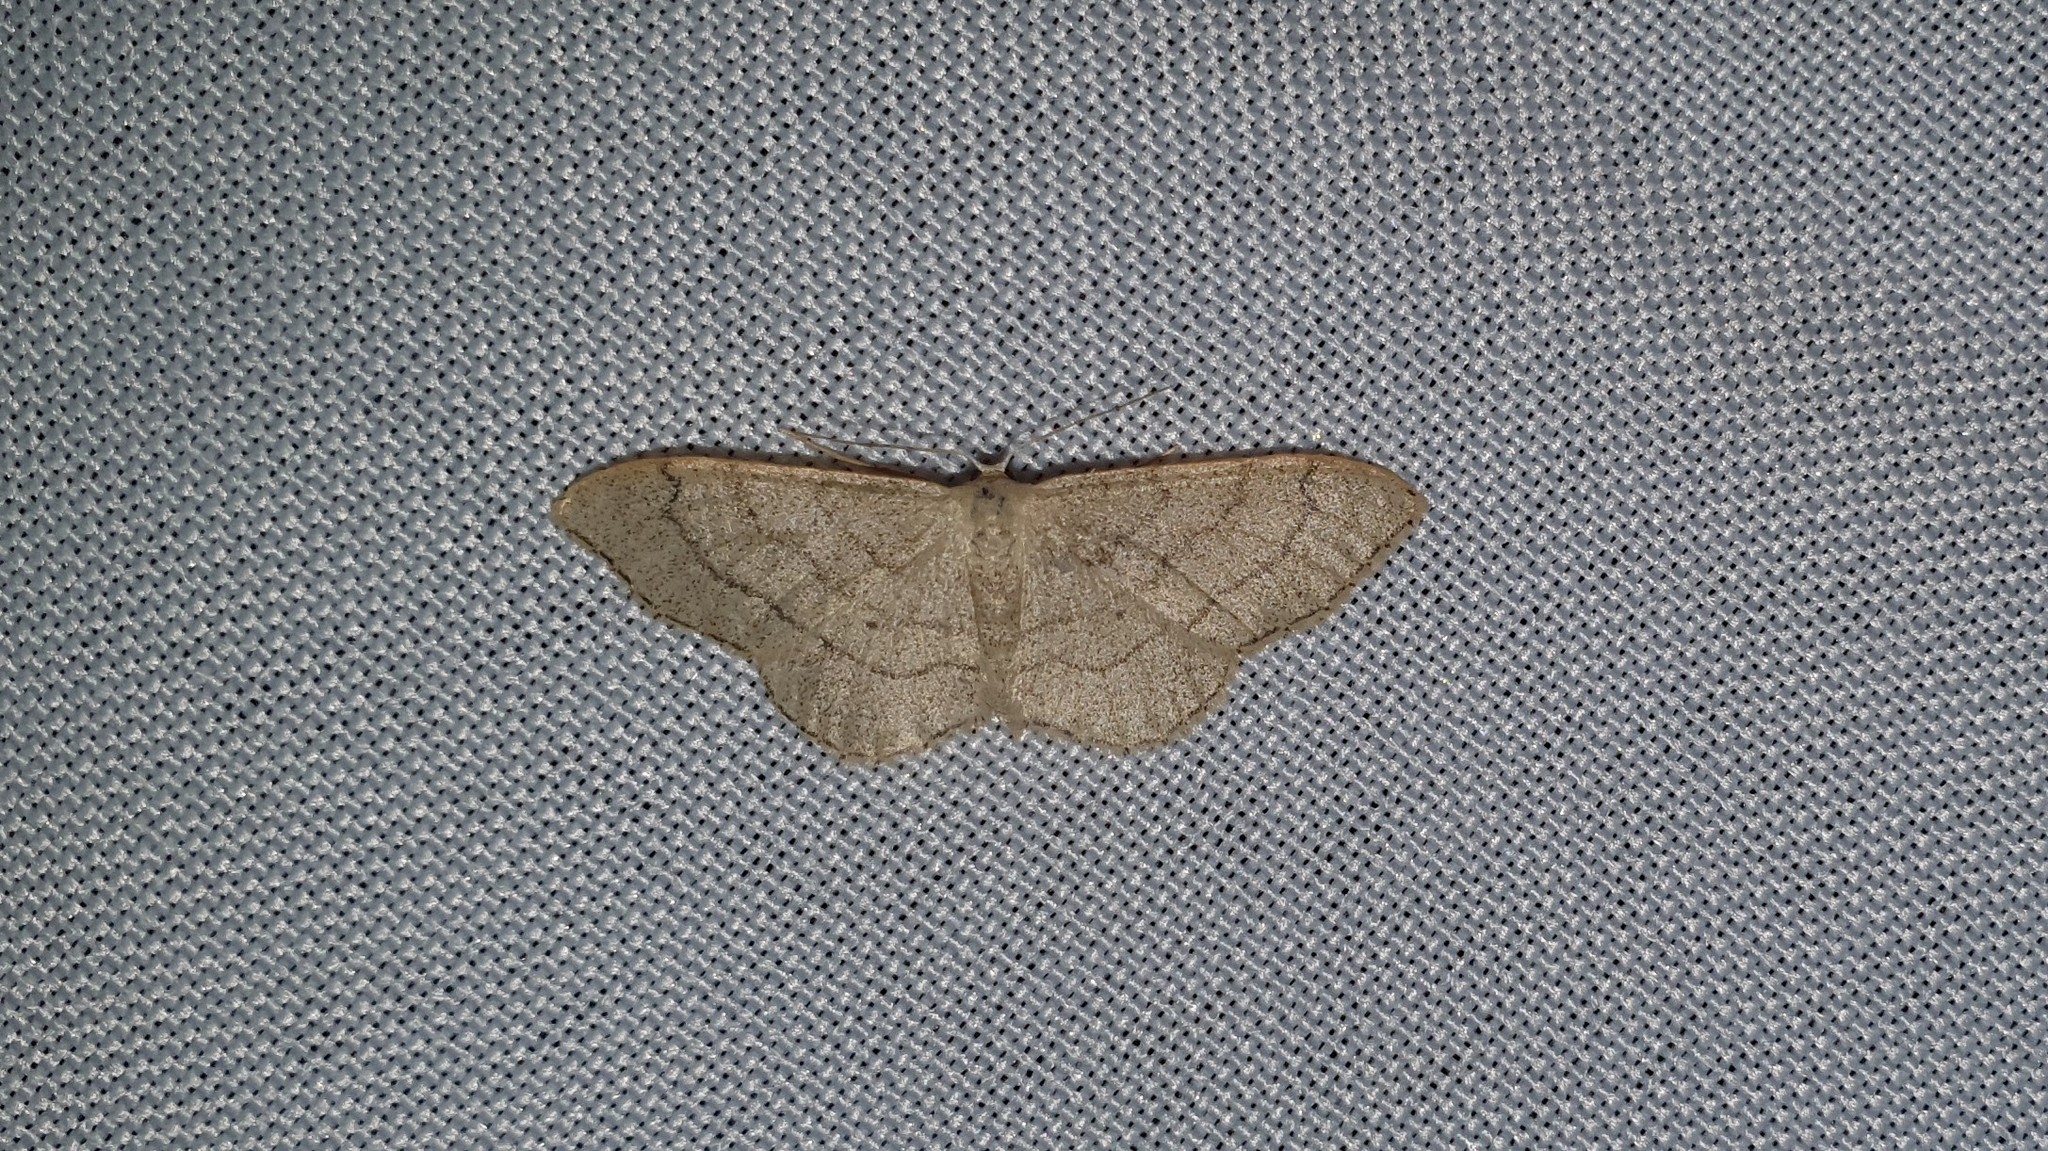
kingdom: Animalia
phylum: Arthropoda
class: Insecta
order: Lepidoptera
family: Geometridae
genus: Idaea
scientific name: Idaea aversata
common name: Riband wave
